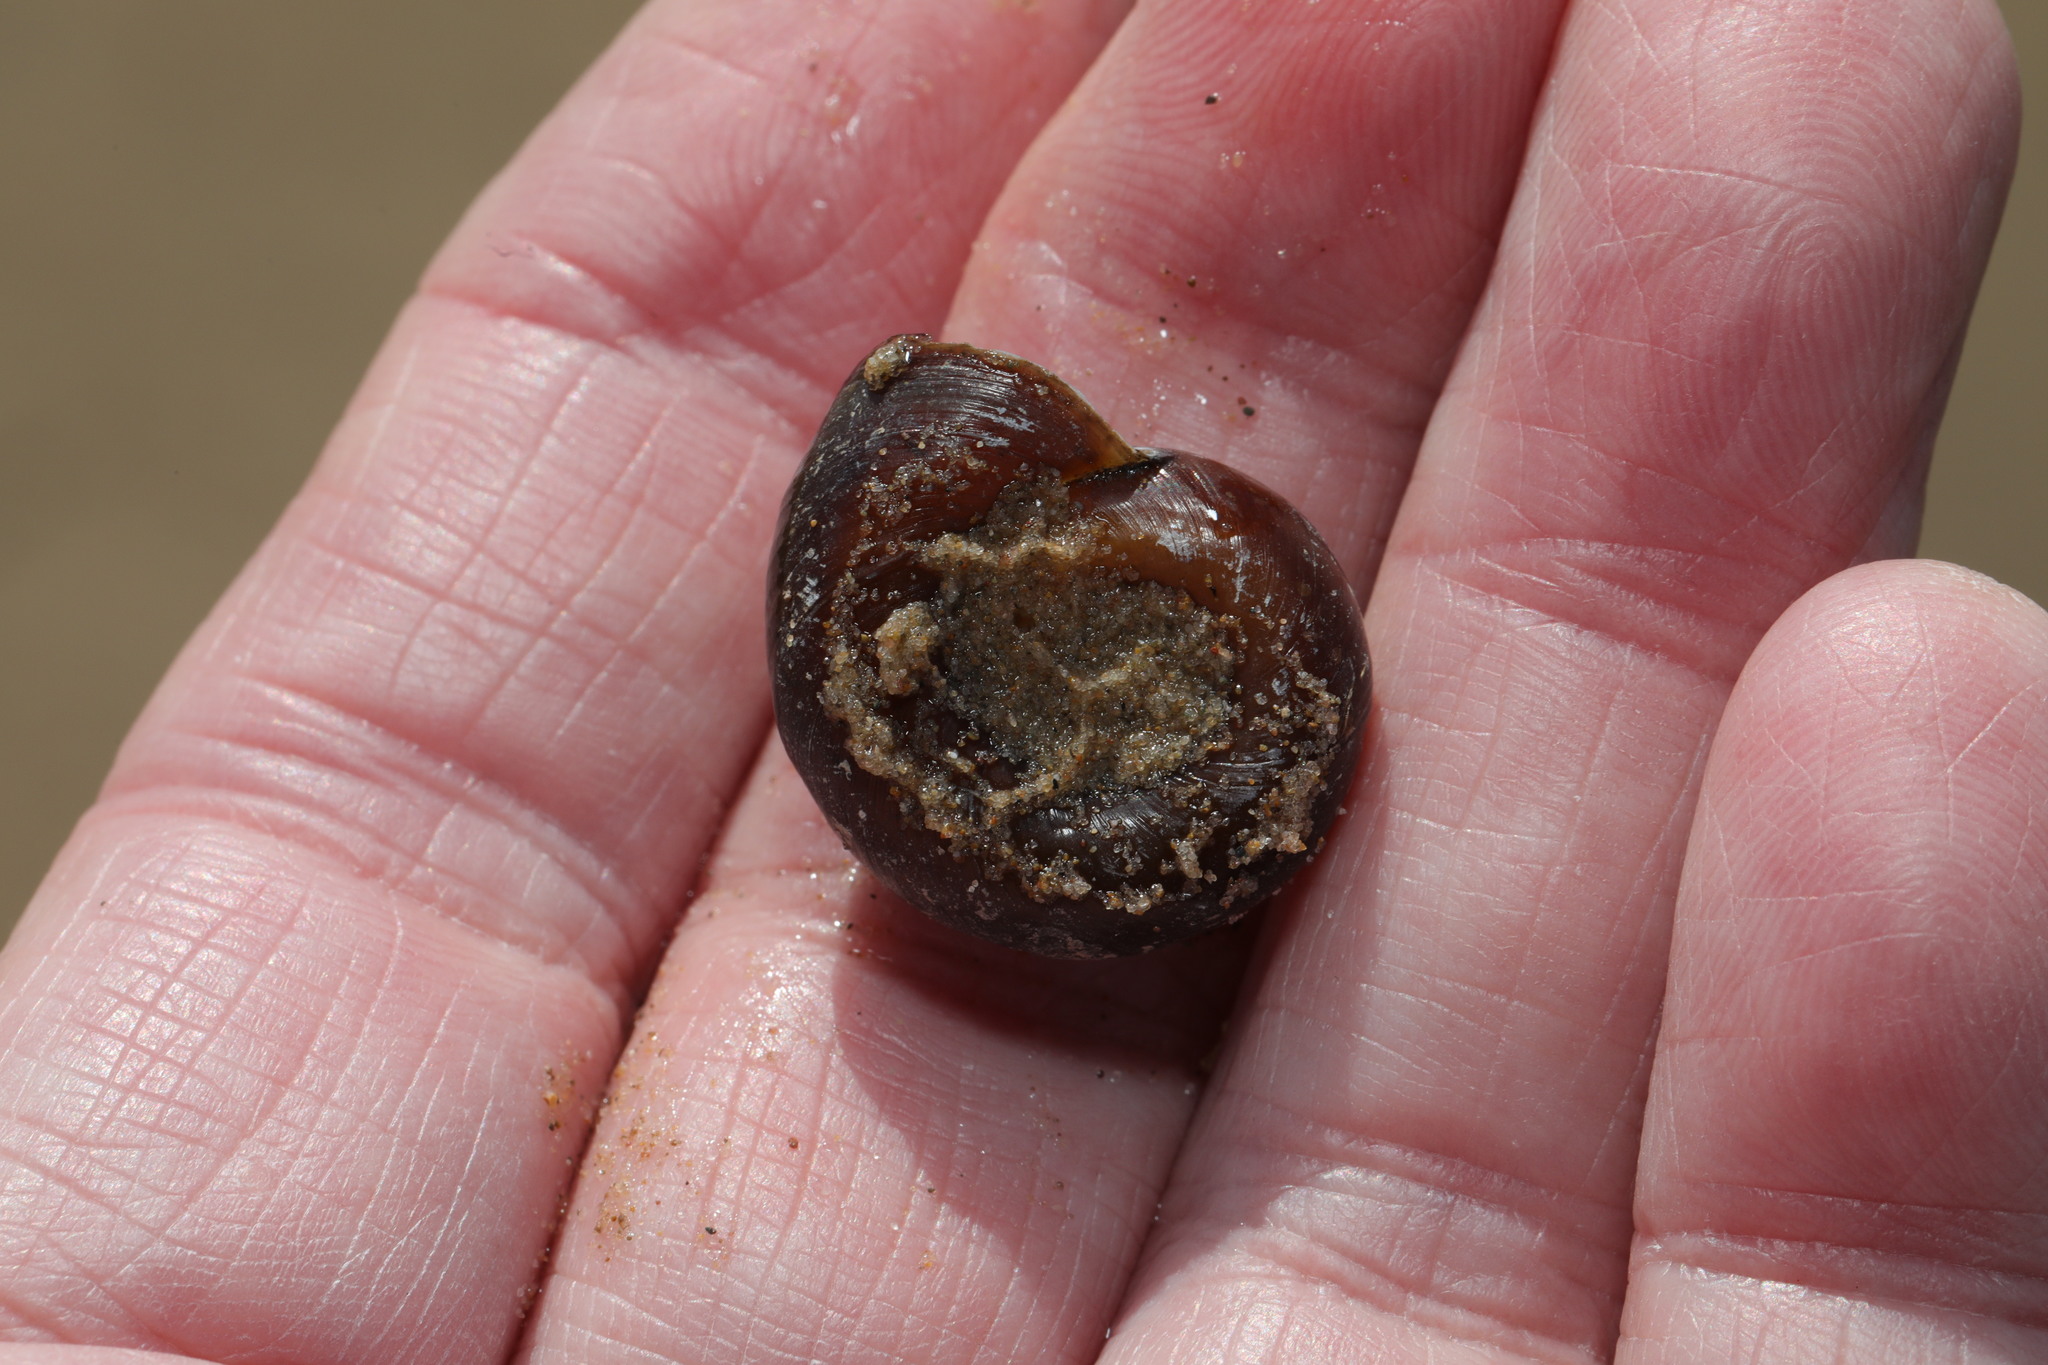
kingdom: Animalia
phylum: Mollusca
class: Gastropoda
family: Planorbidae
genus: Planorbarius
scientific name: Planorbarius corneus
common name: Great ramshorn
